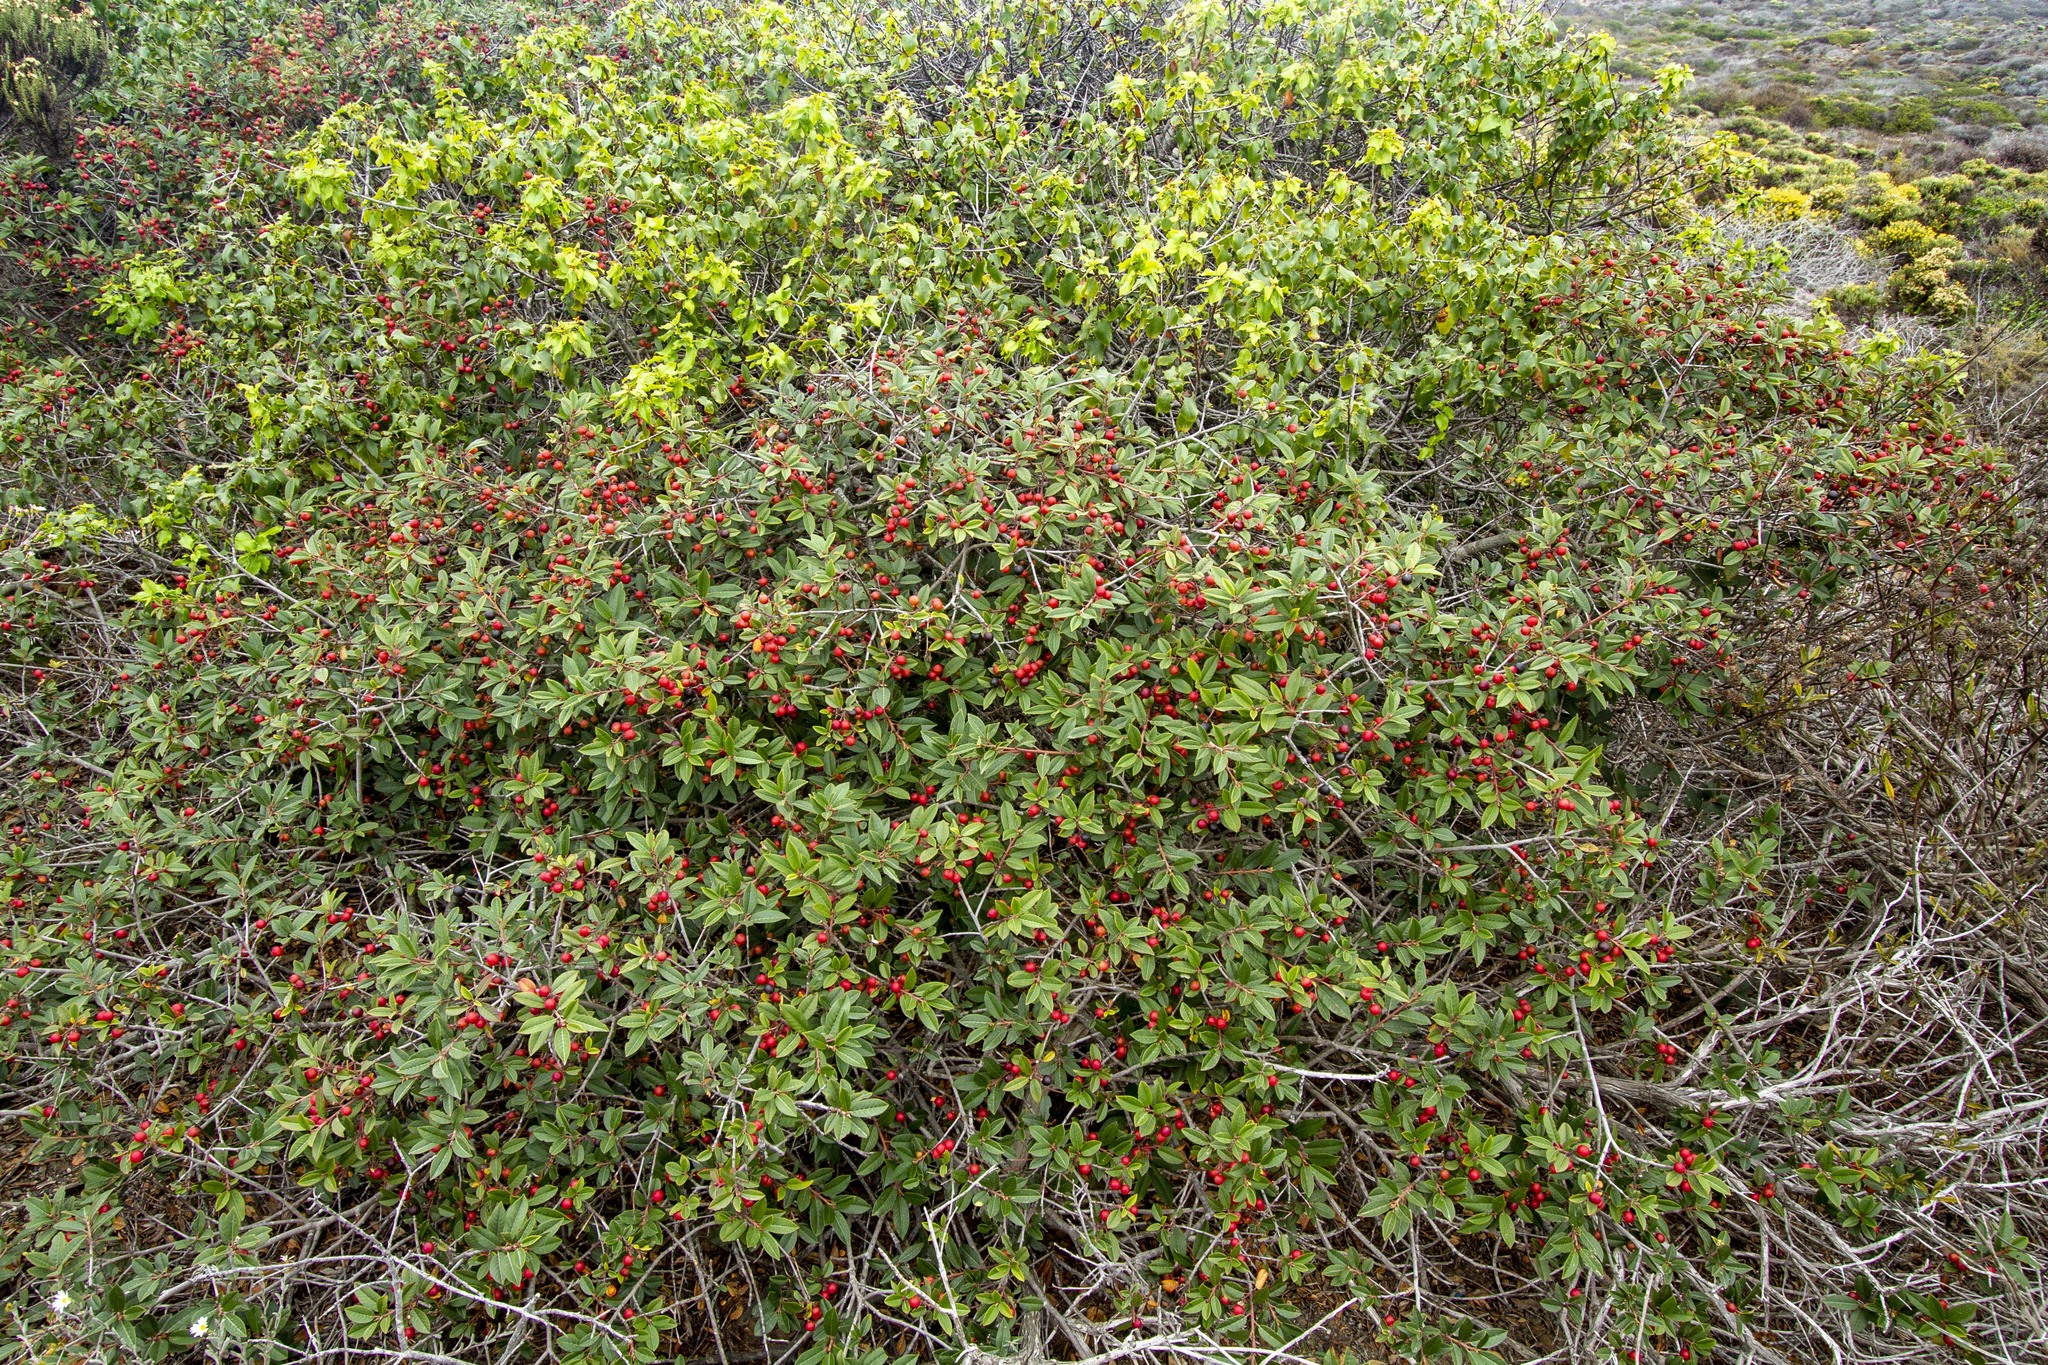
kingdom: Plantae
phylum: Tracheophyta
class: Magnoliopsida
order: Rosales
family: Rhamnaceae
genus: Frangula
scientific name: Frangula californica
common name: California buckthorn
